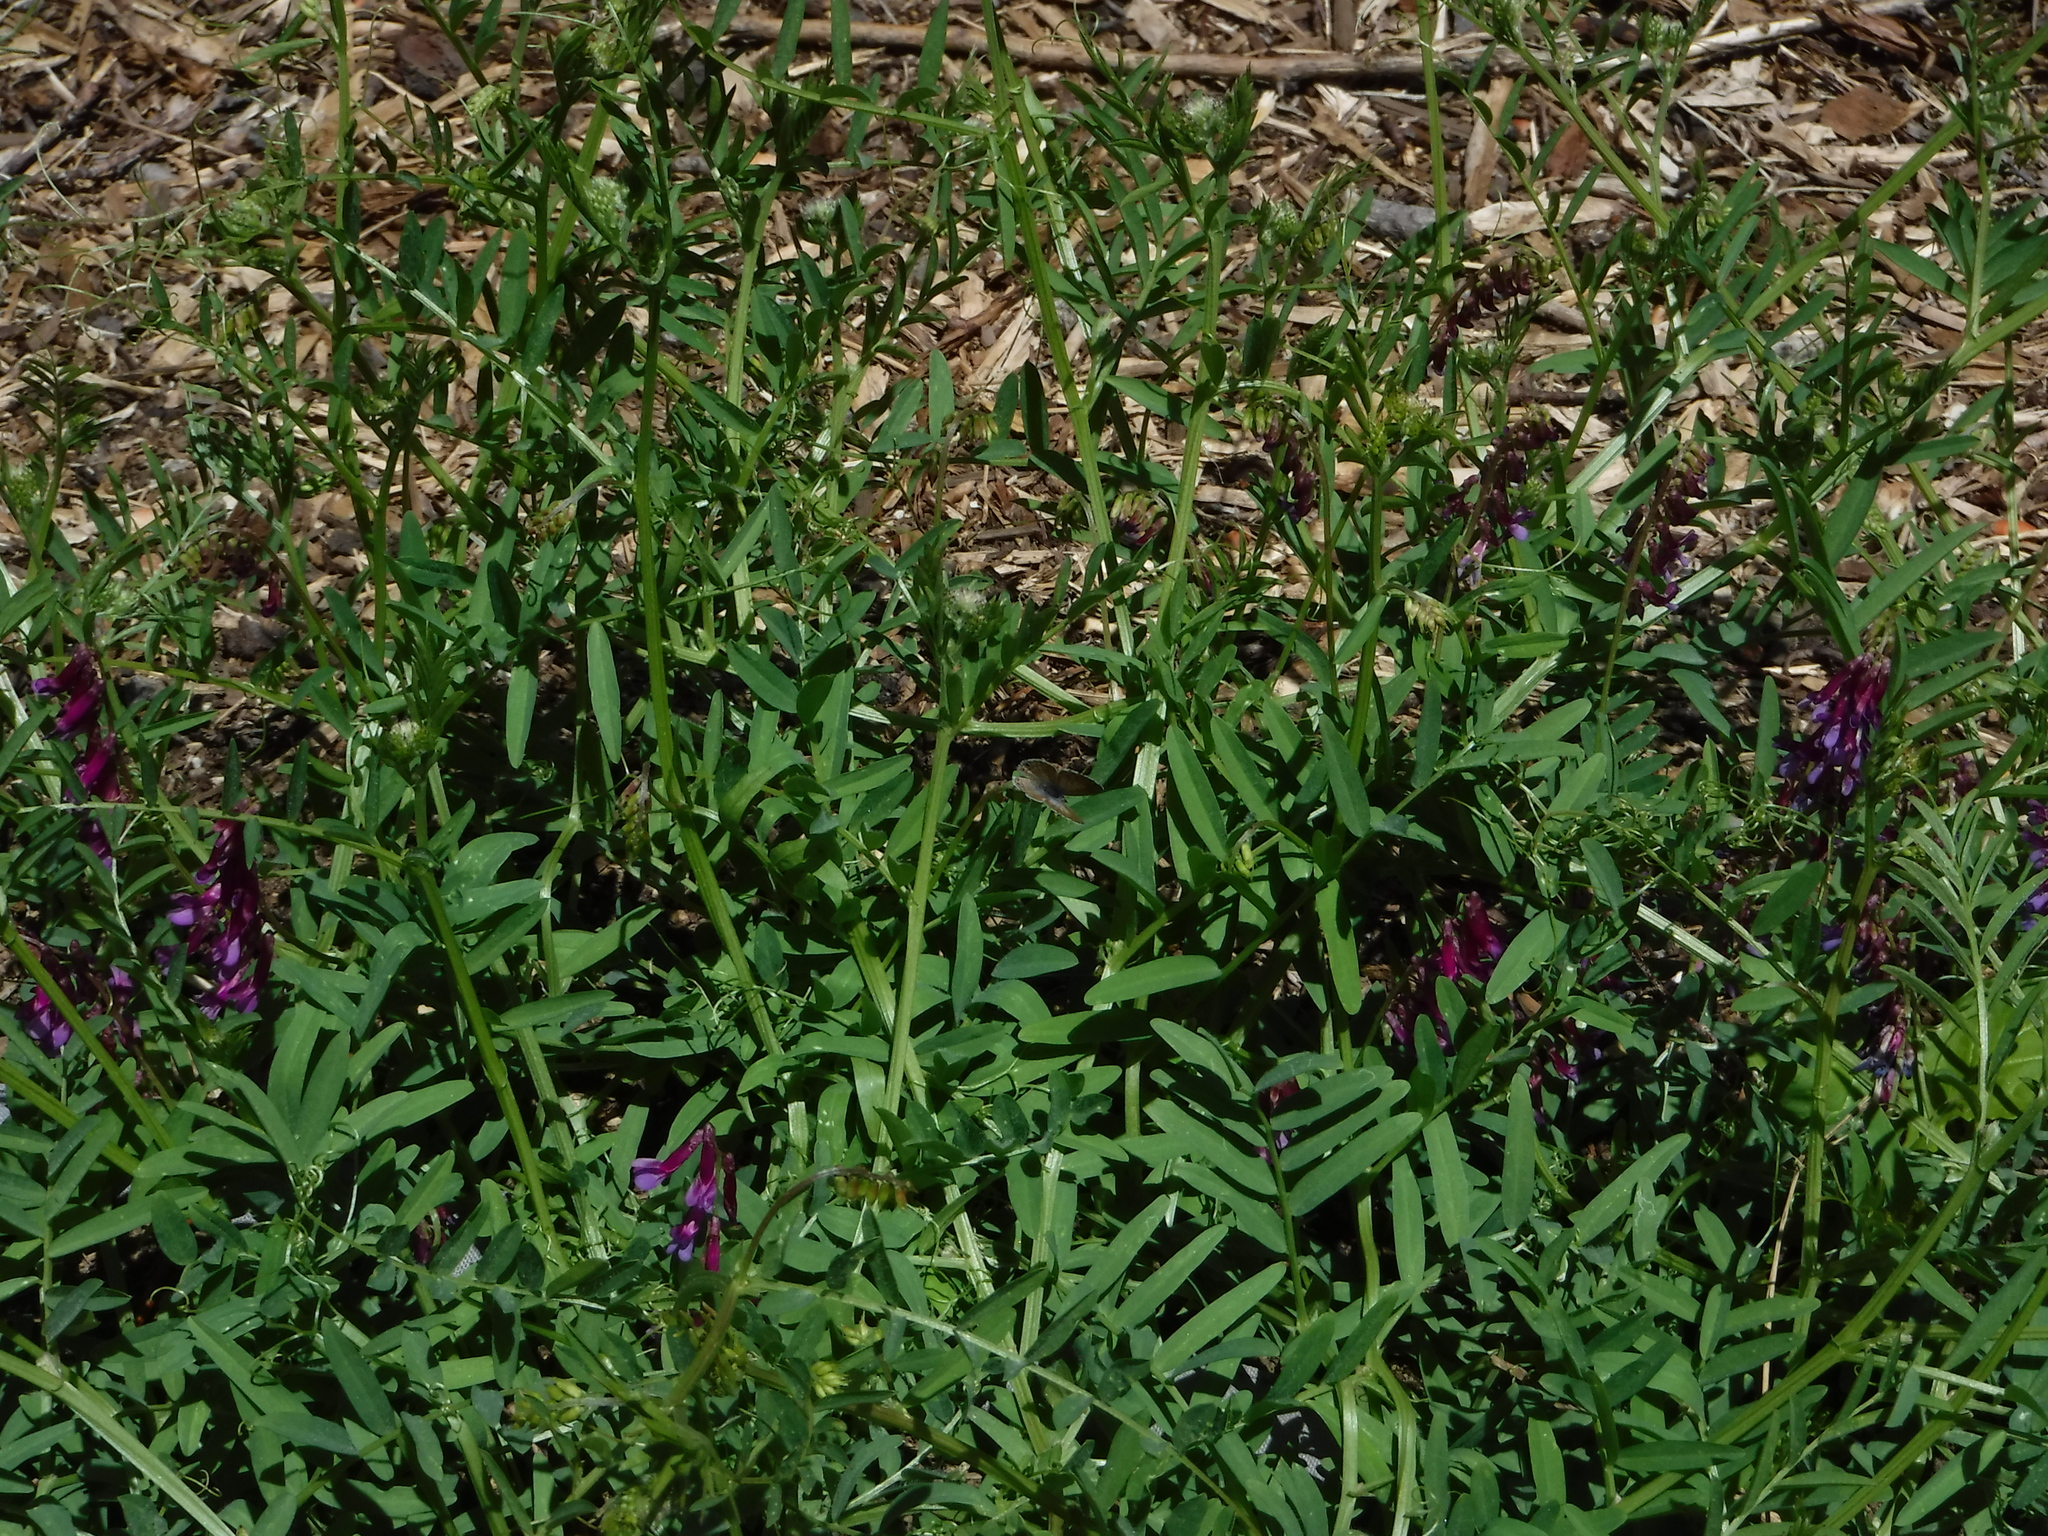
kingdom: Animalia
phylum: Arthropoda
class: Insecta
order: Lepidoptera
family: Lycaenidae
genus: Leptotes
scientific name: Leptotes marina
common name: Marine blue
